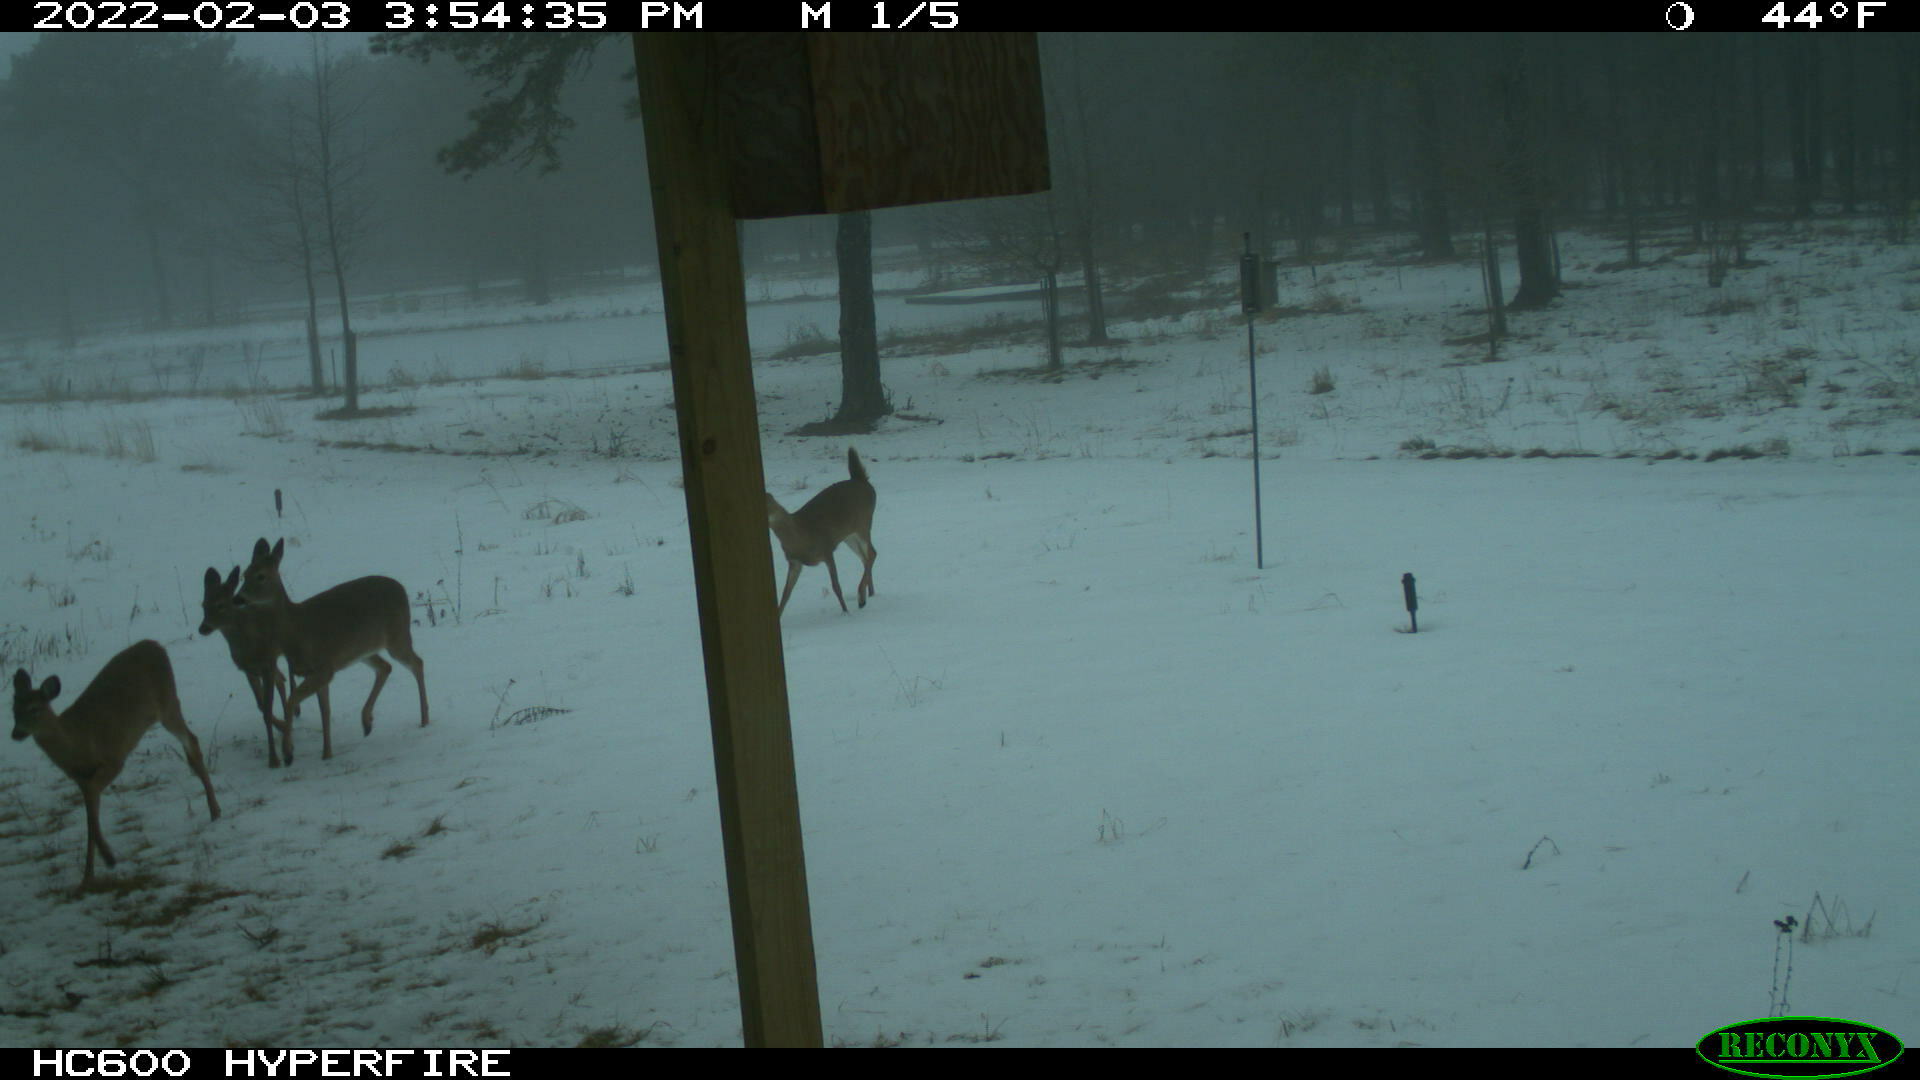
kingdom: Animalia
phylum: Chordata
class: Mammalia
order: Artiodactyla
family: Cervidae
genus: Odocoileus
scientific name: Odocoileus virginianus
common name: White-tailed deer
